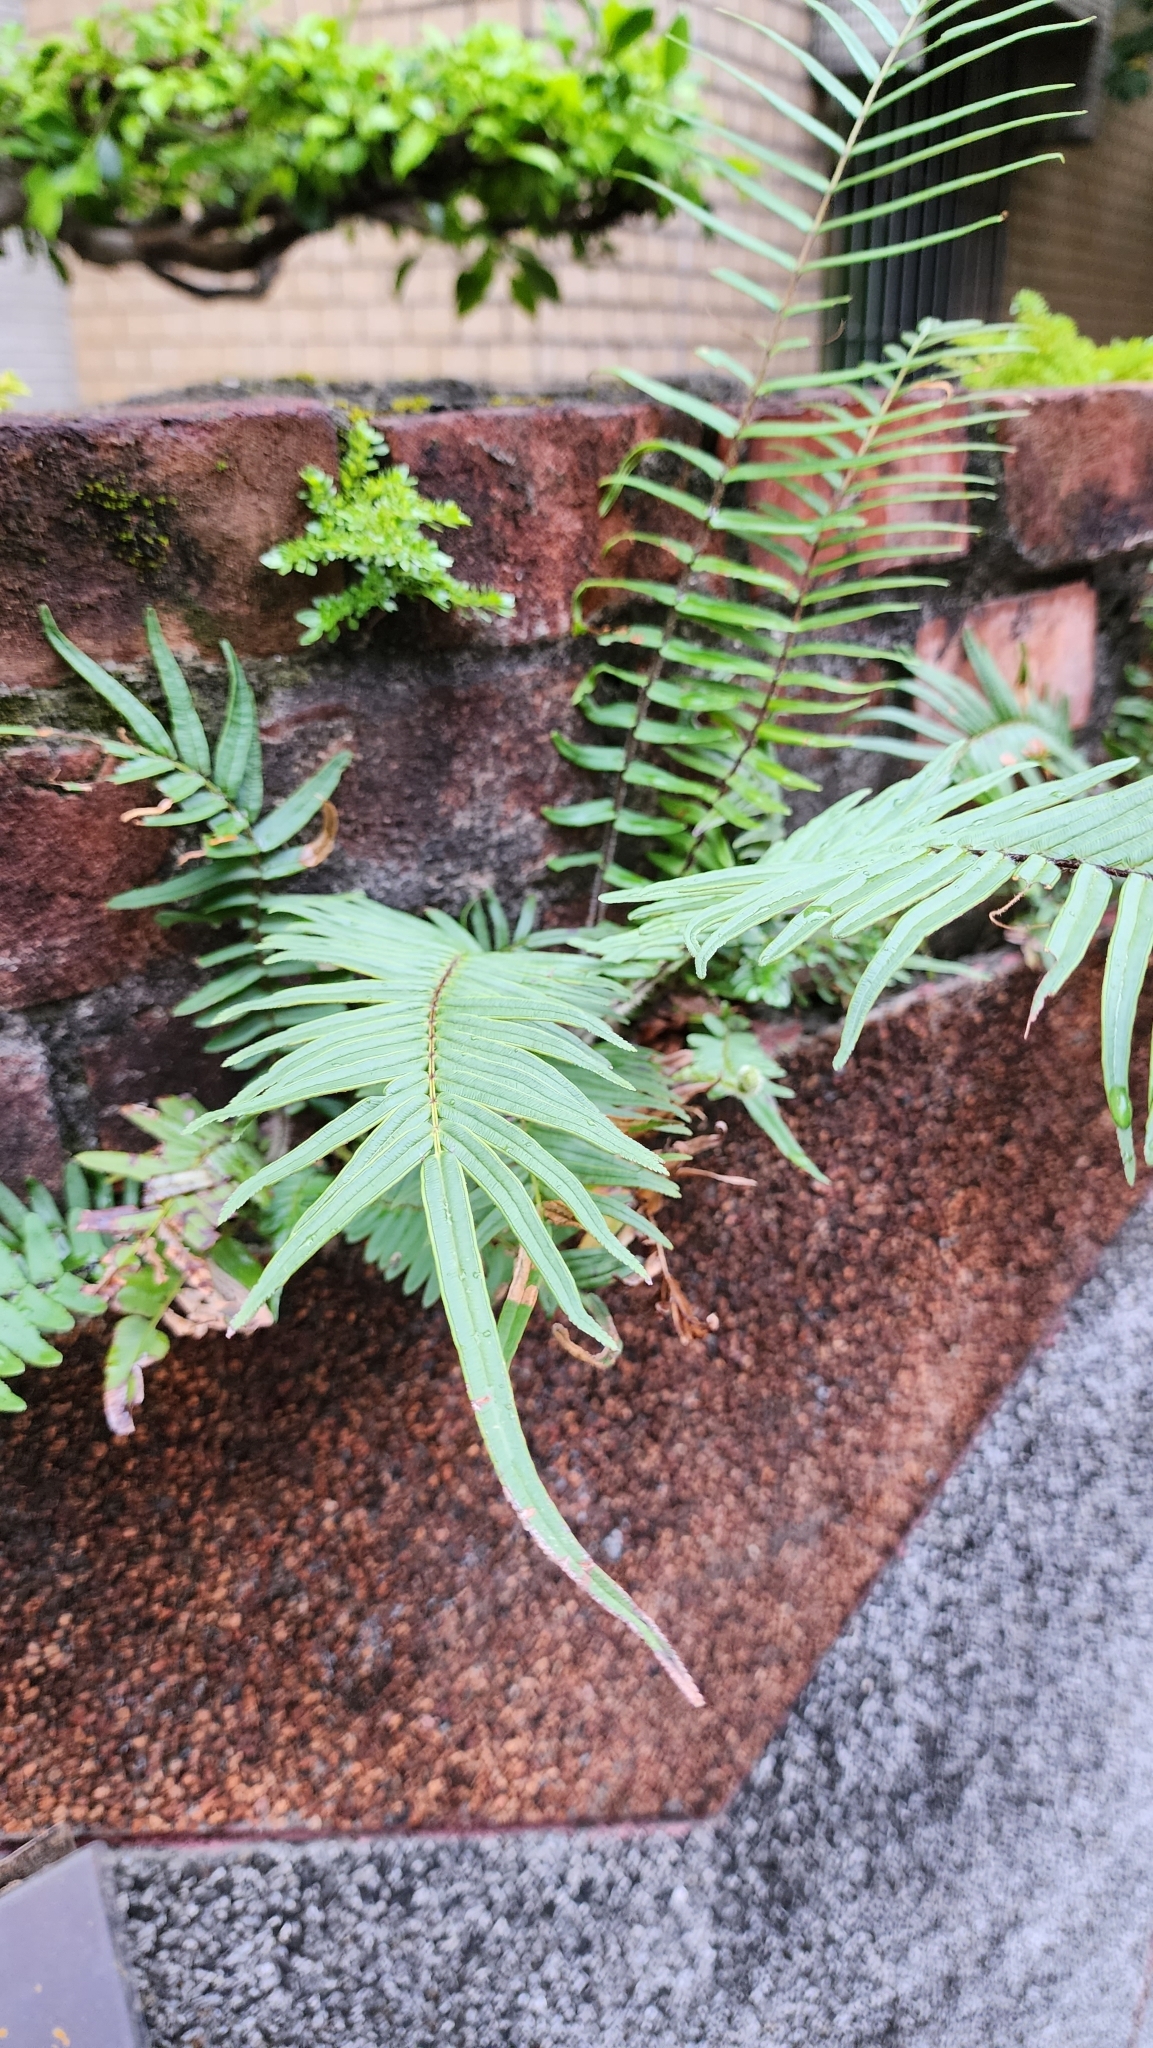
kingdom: Plantae
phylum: Tracheophyta
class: Polypodiopsida
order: Polypodiales
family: Pteridaceae
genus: Pteris
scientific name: Pteris vittata
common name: Ladder brake
